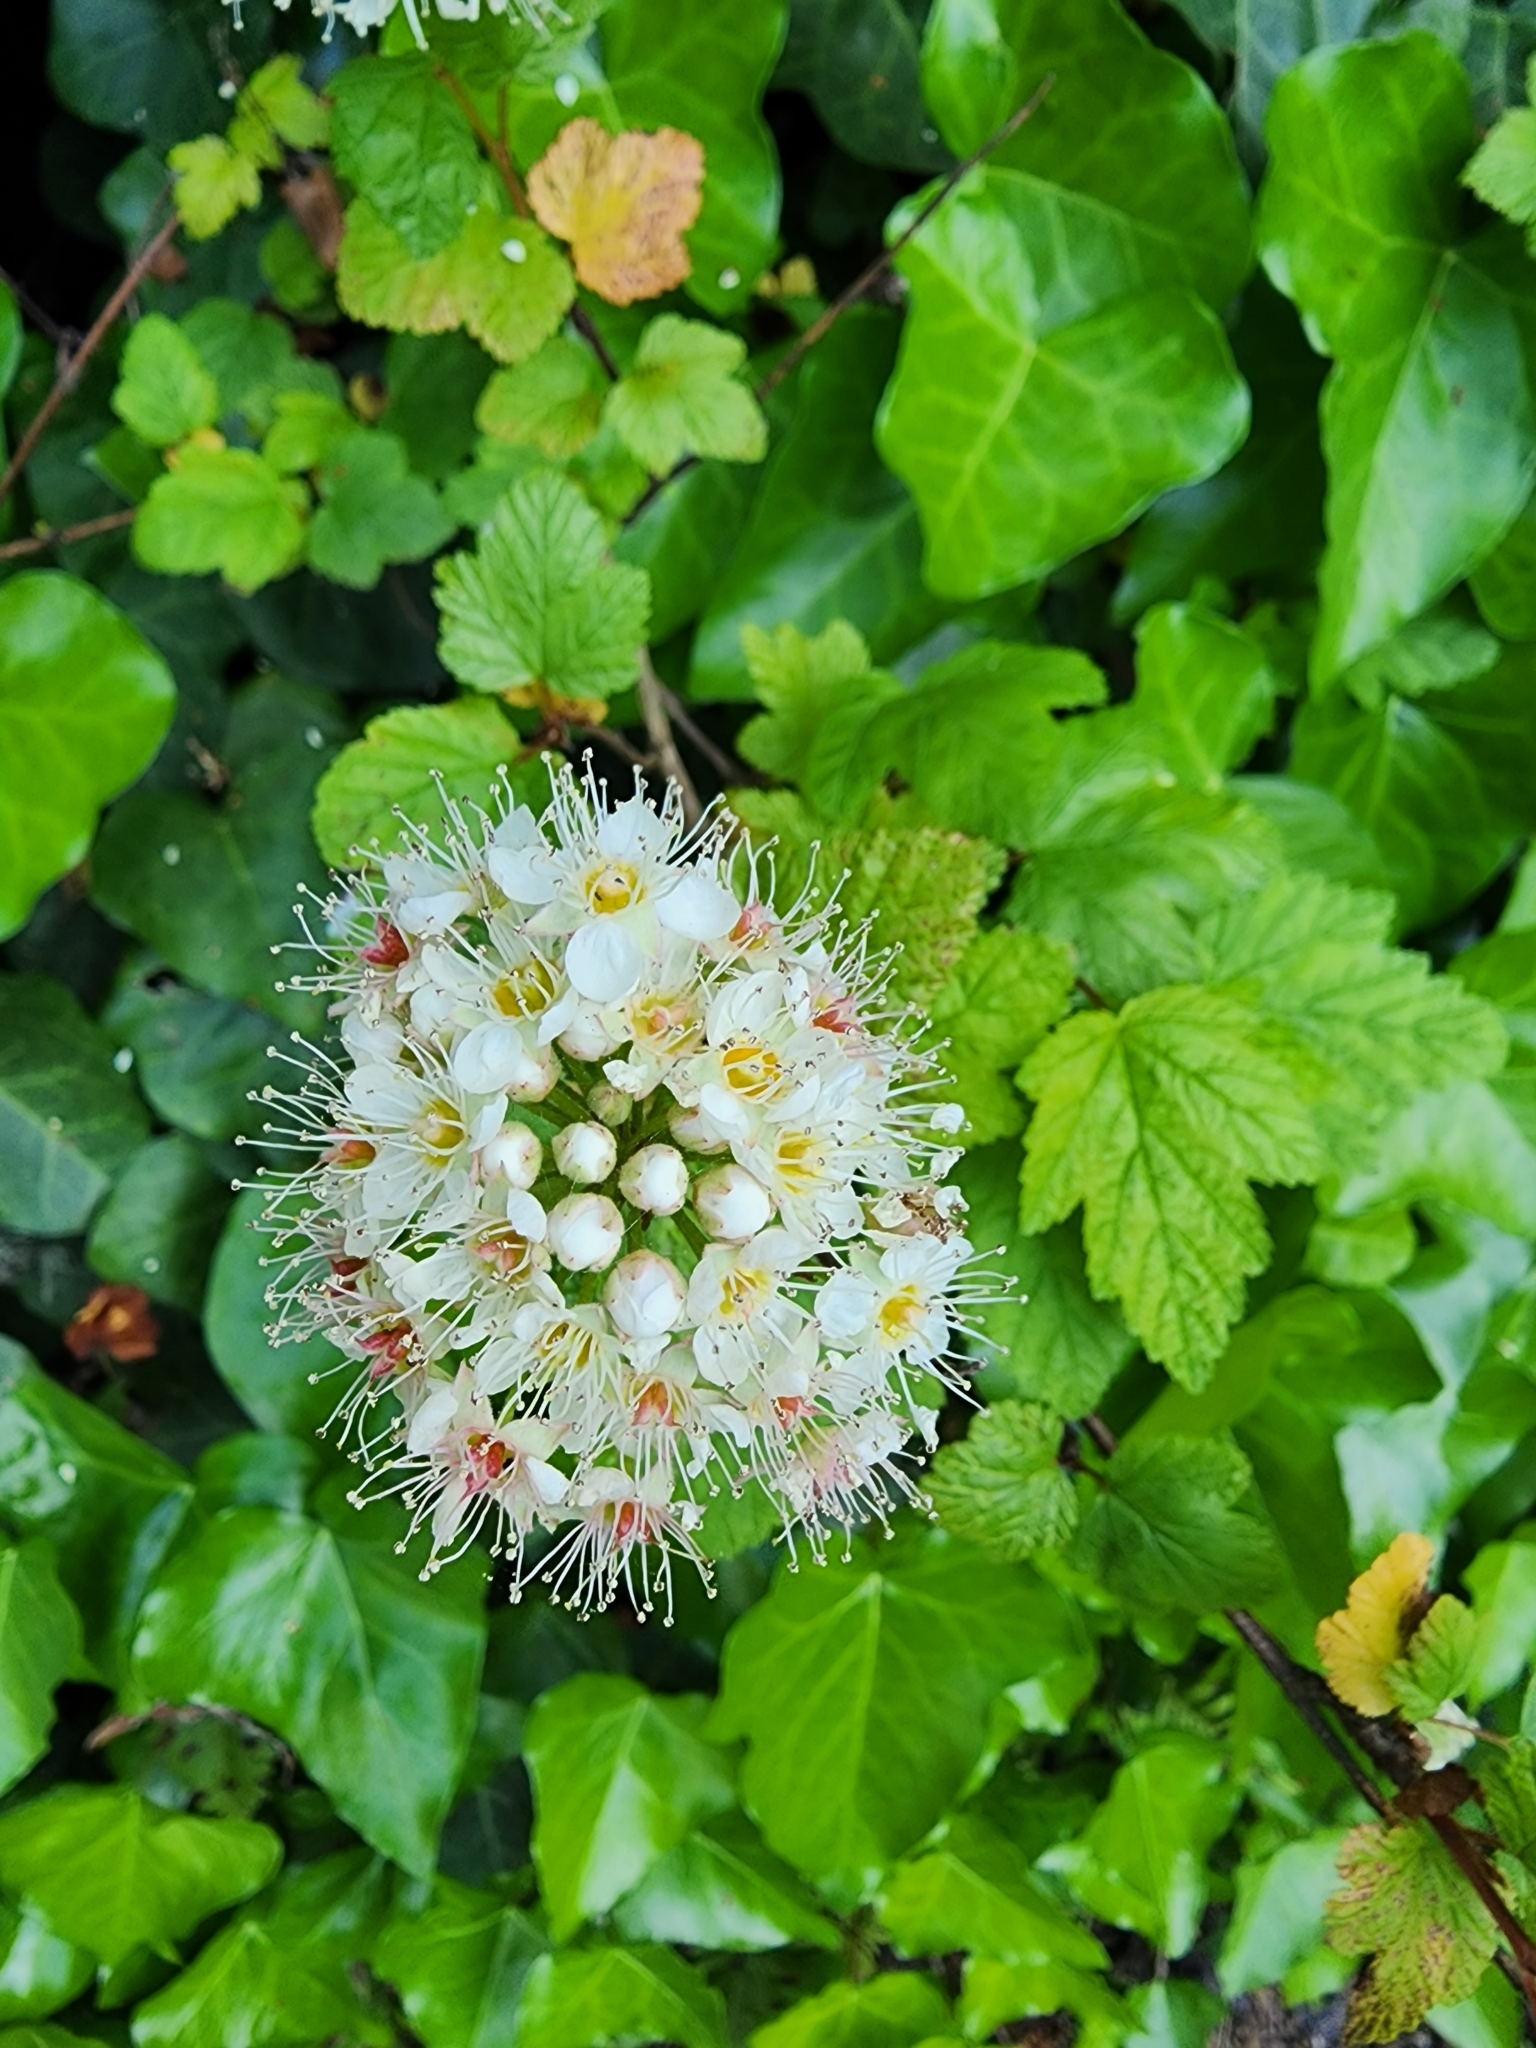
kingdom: Plantae
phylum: Tracheophyta
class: Magnoliopsida
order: Rosales
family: Rosaceae
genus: Physocarpus
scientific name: Physocarpus capitatus
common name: Pacific ninebark
